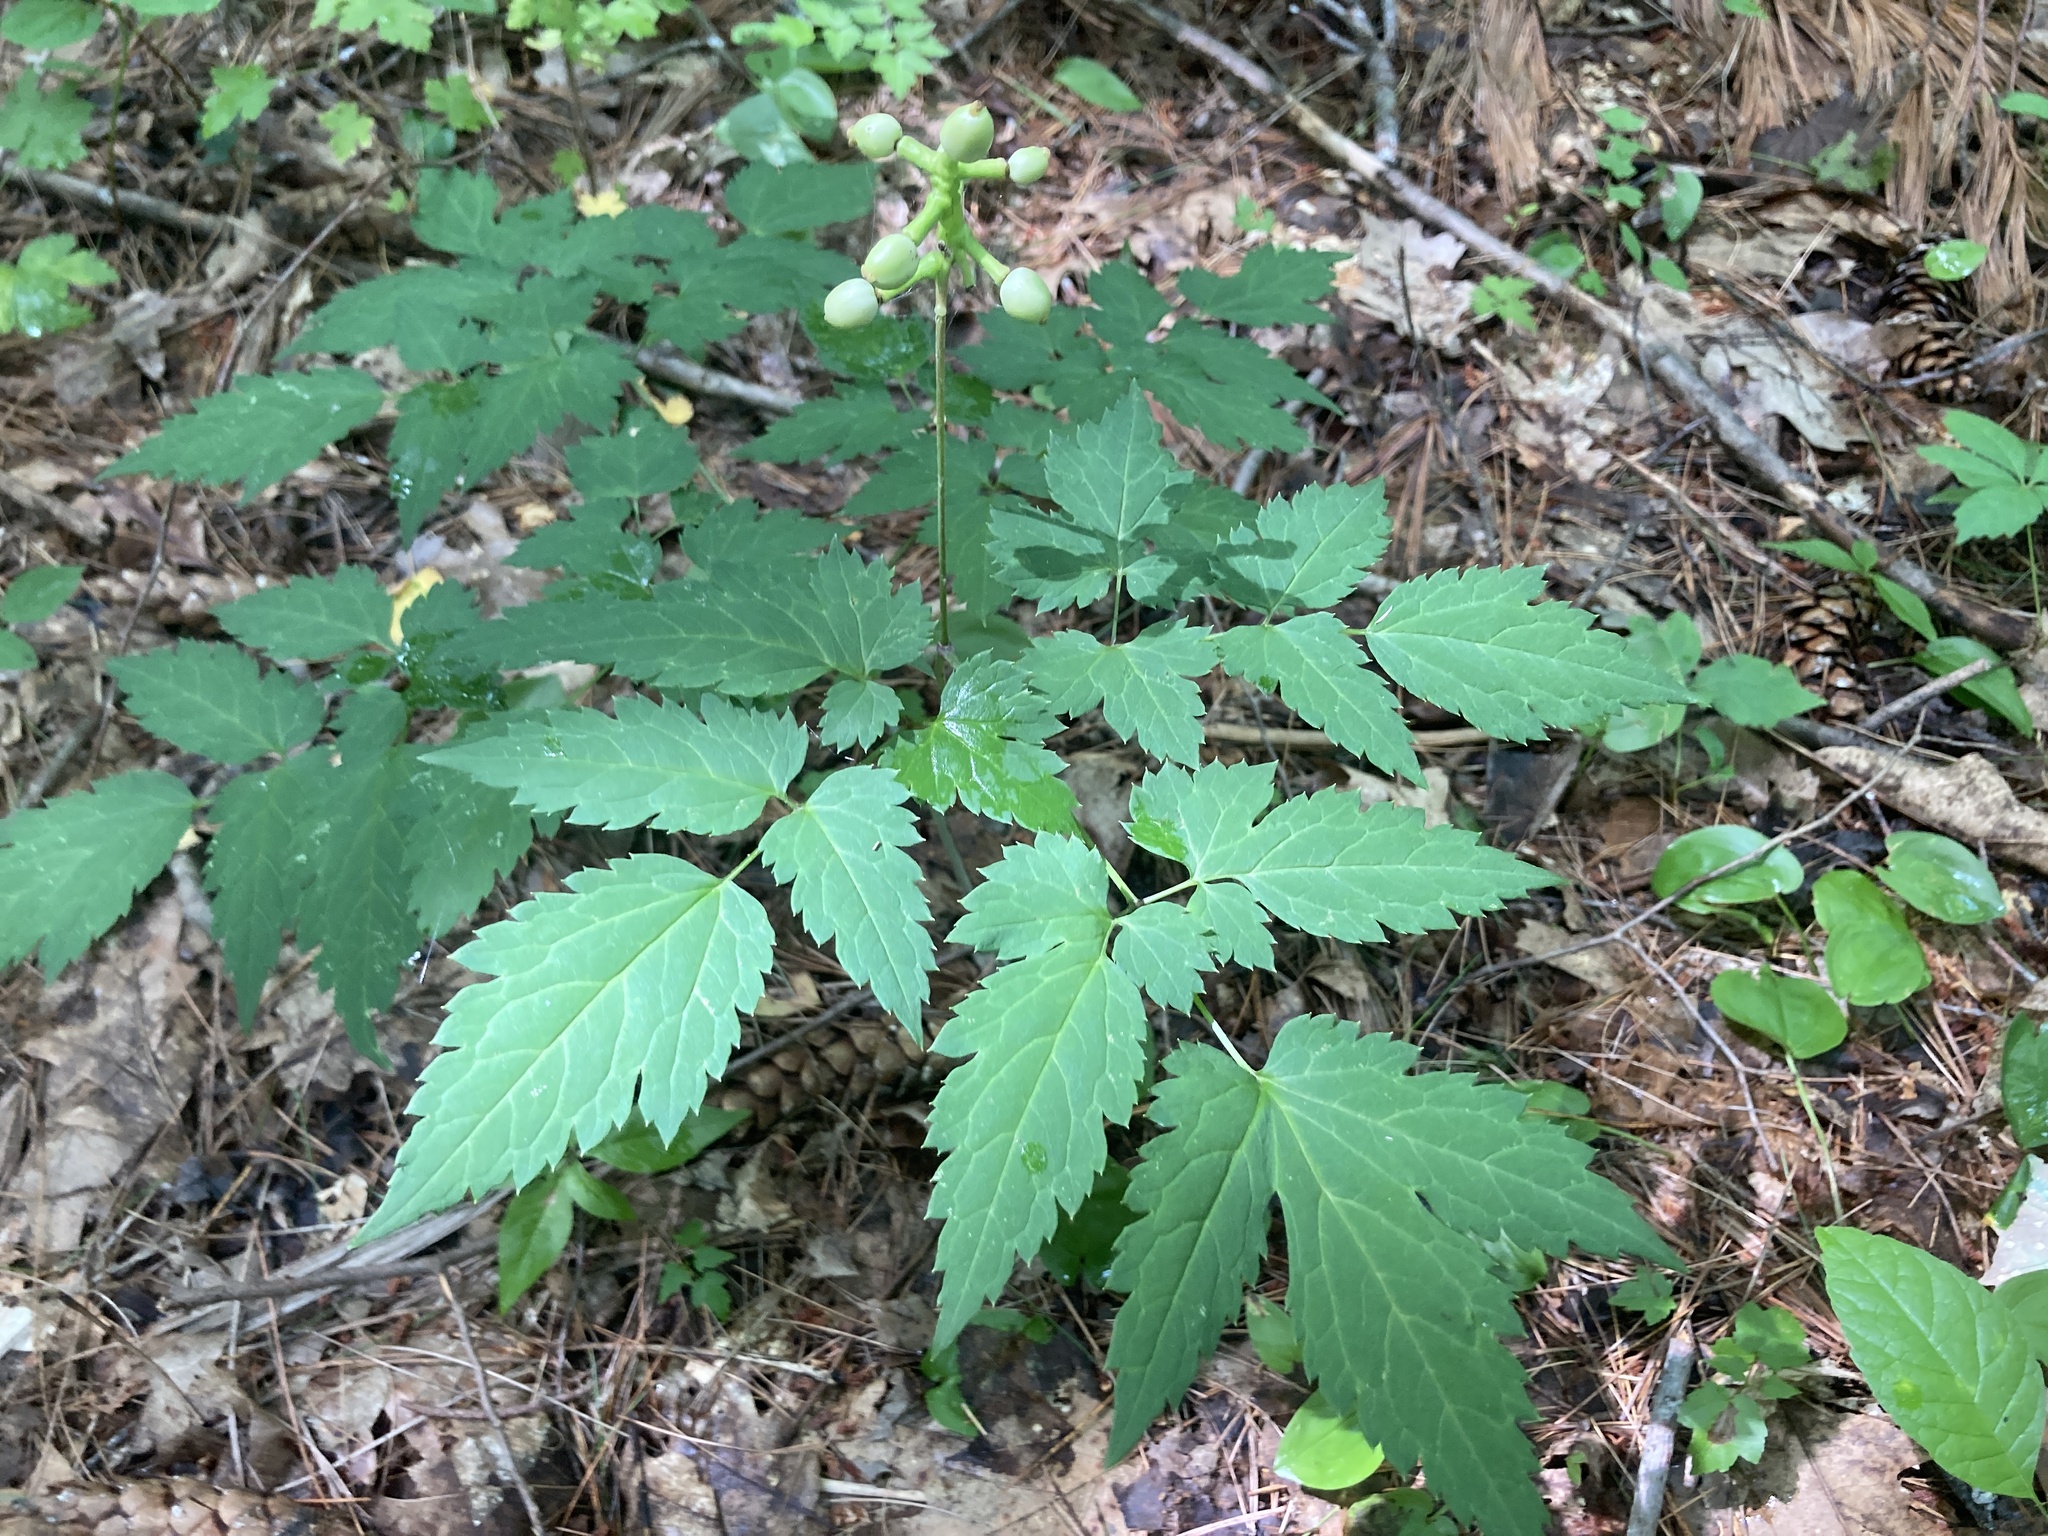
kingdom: Plantae
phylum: Tracheophyta
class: Magnoliopsida
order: Ranunculales
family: Ranunculaceae
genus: Actaea
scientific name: Actaea pachypoda
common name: Doll's-eyes
